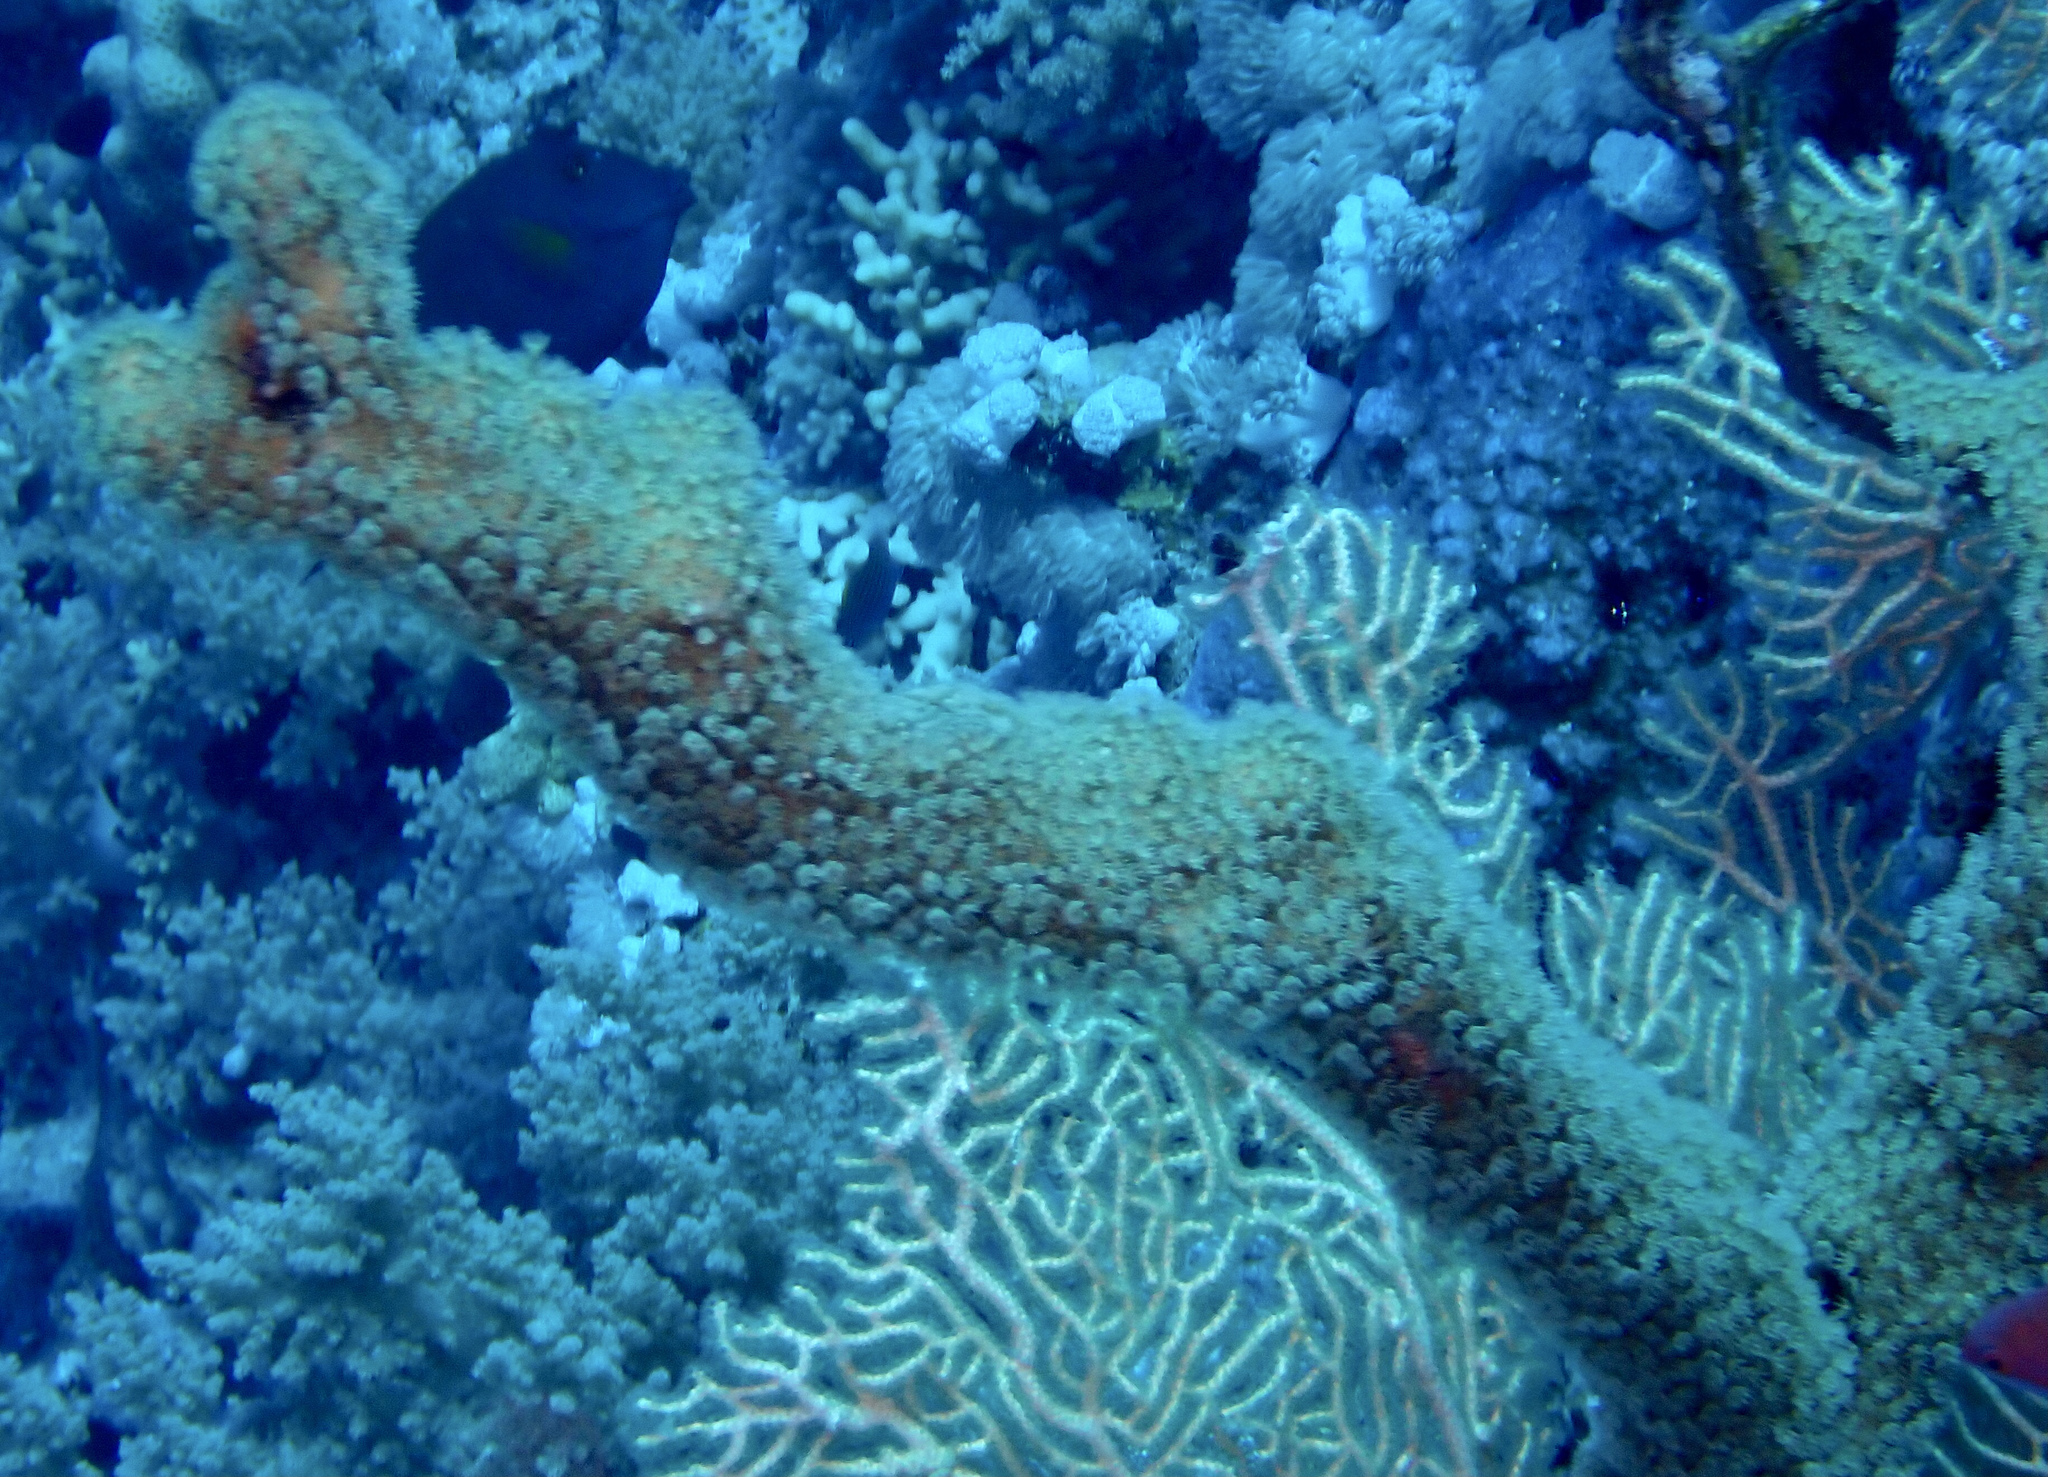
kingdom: Animalia
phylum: Cnidaria
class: Anthozoa
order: Malacalcyonacea
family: Lemnaliadae
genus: Rhytisma
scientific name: Rhytisma fulvum
